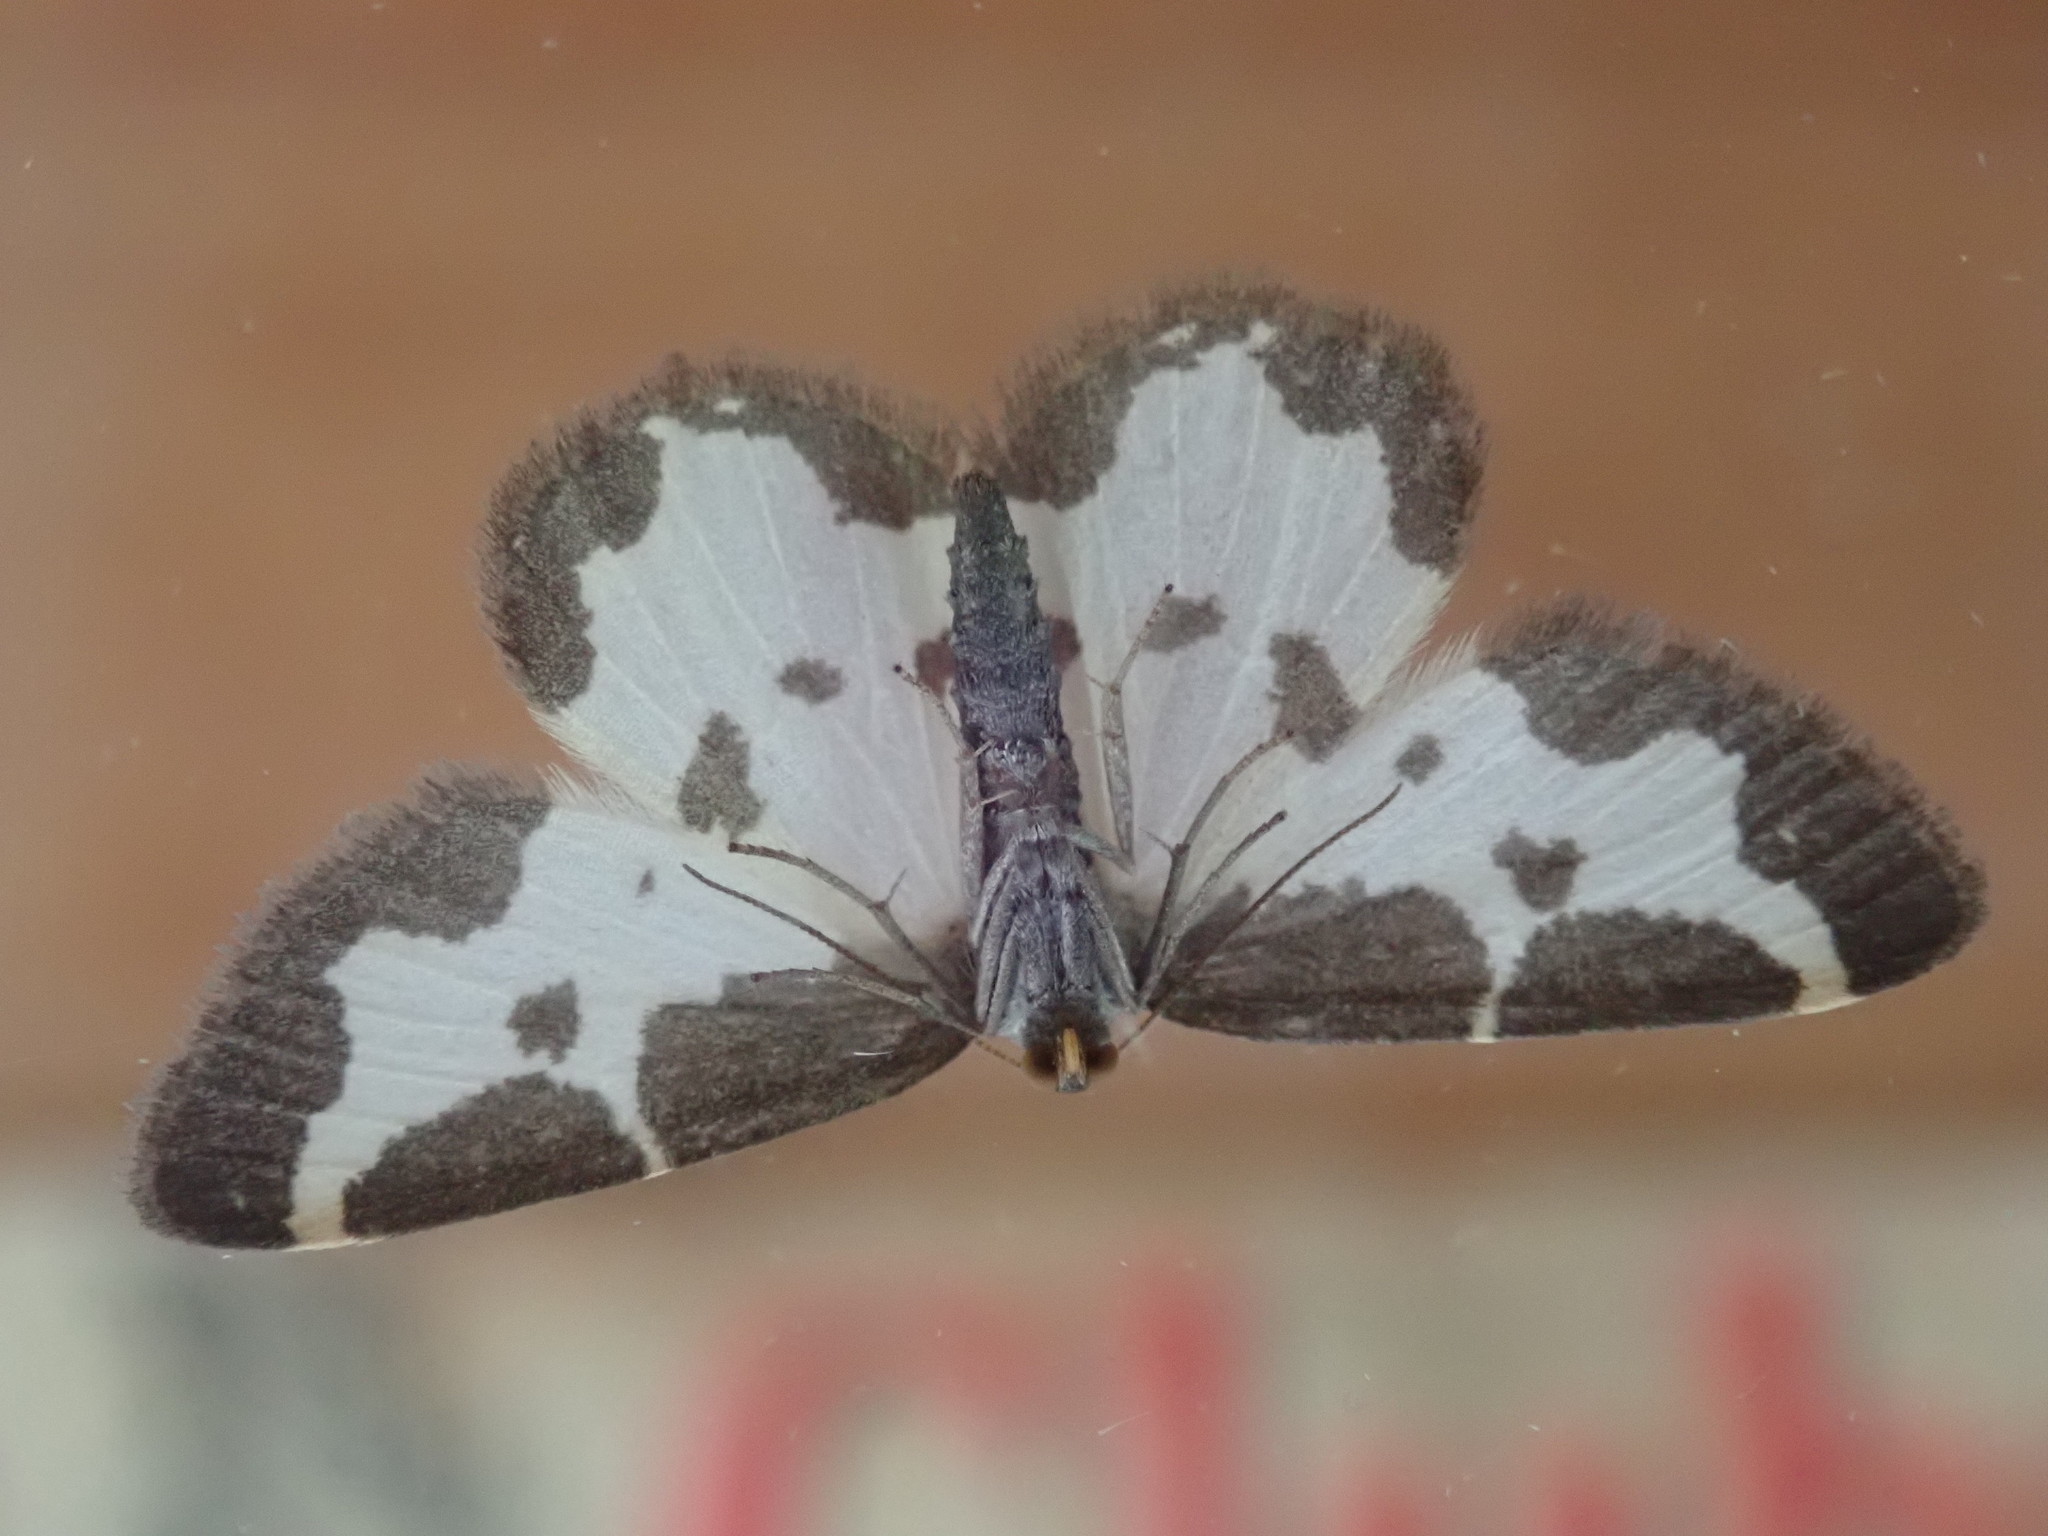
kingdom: Animalia
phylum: Arthropoda
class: Insecta
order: Lepidoptera
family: Geometridae
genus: Lomaspilis
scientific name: Lomaspilis marginata
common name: Clouded border
